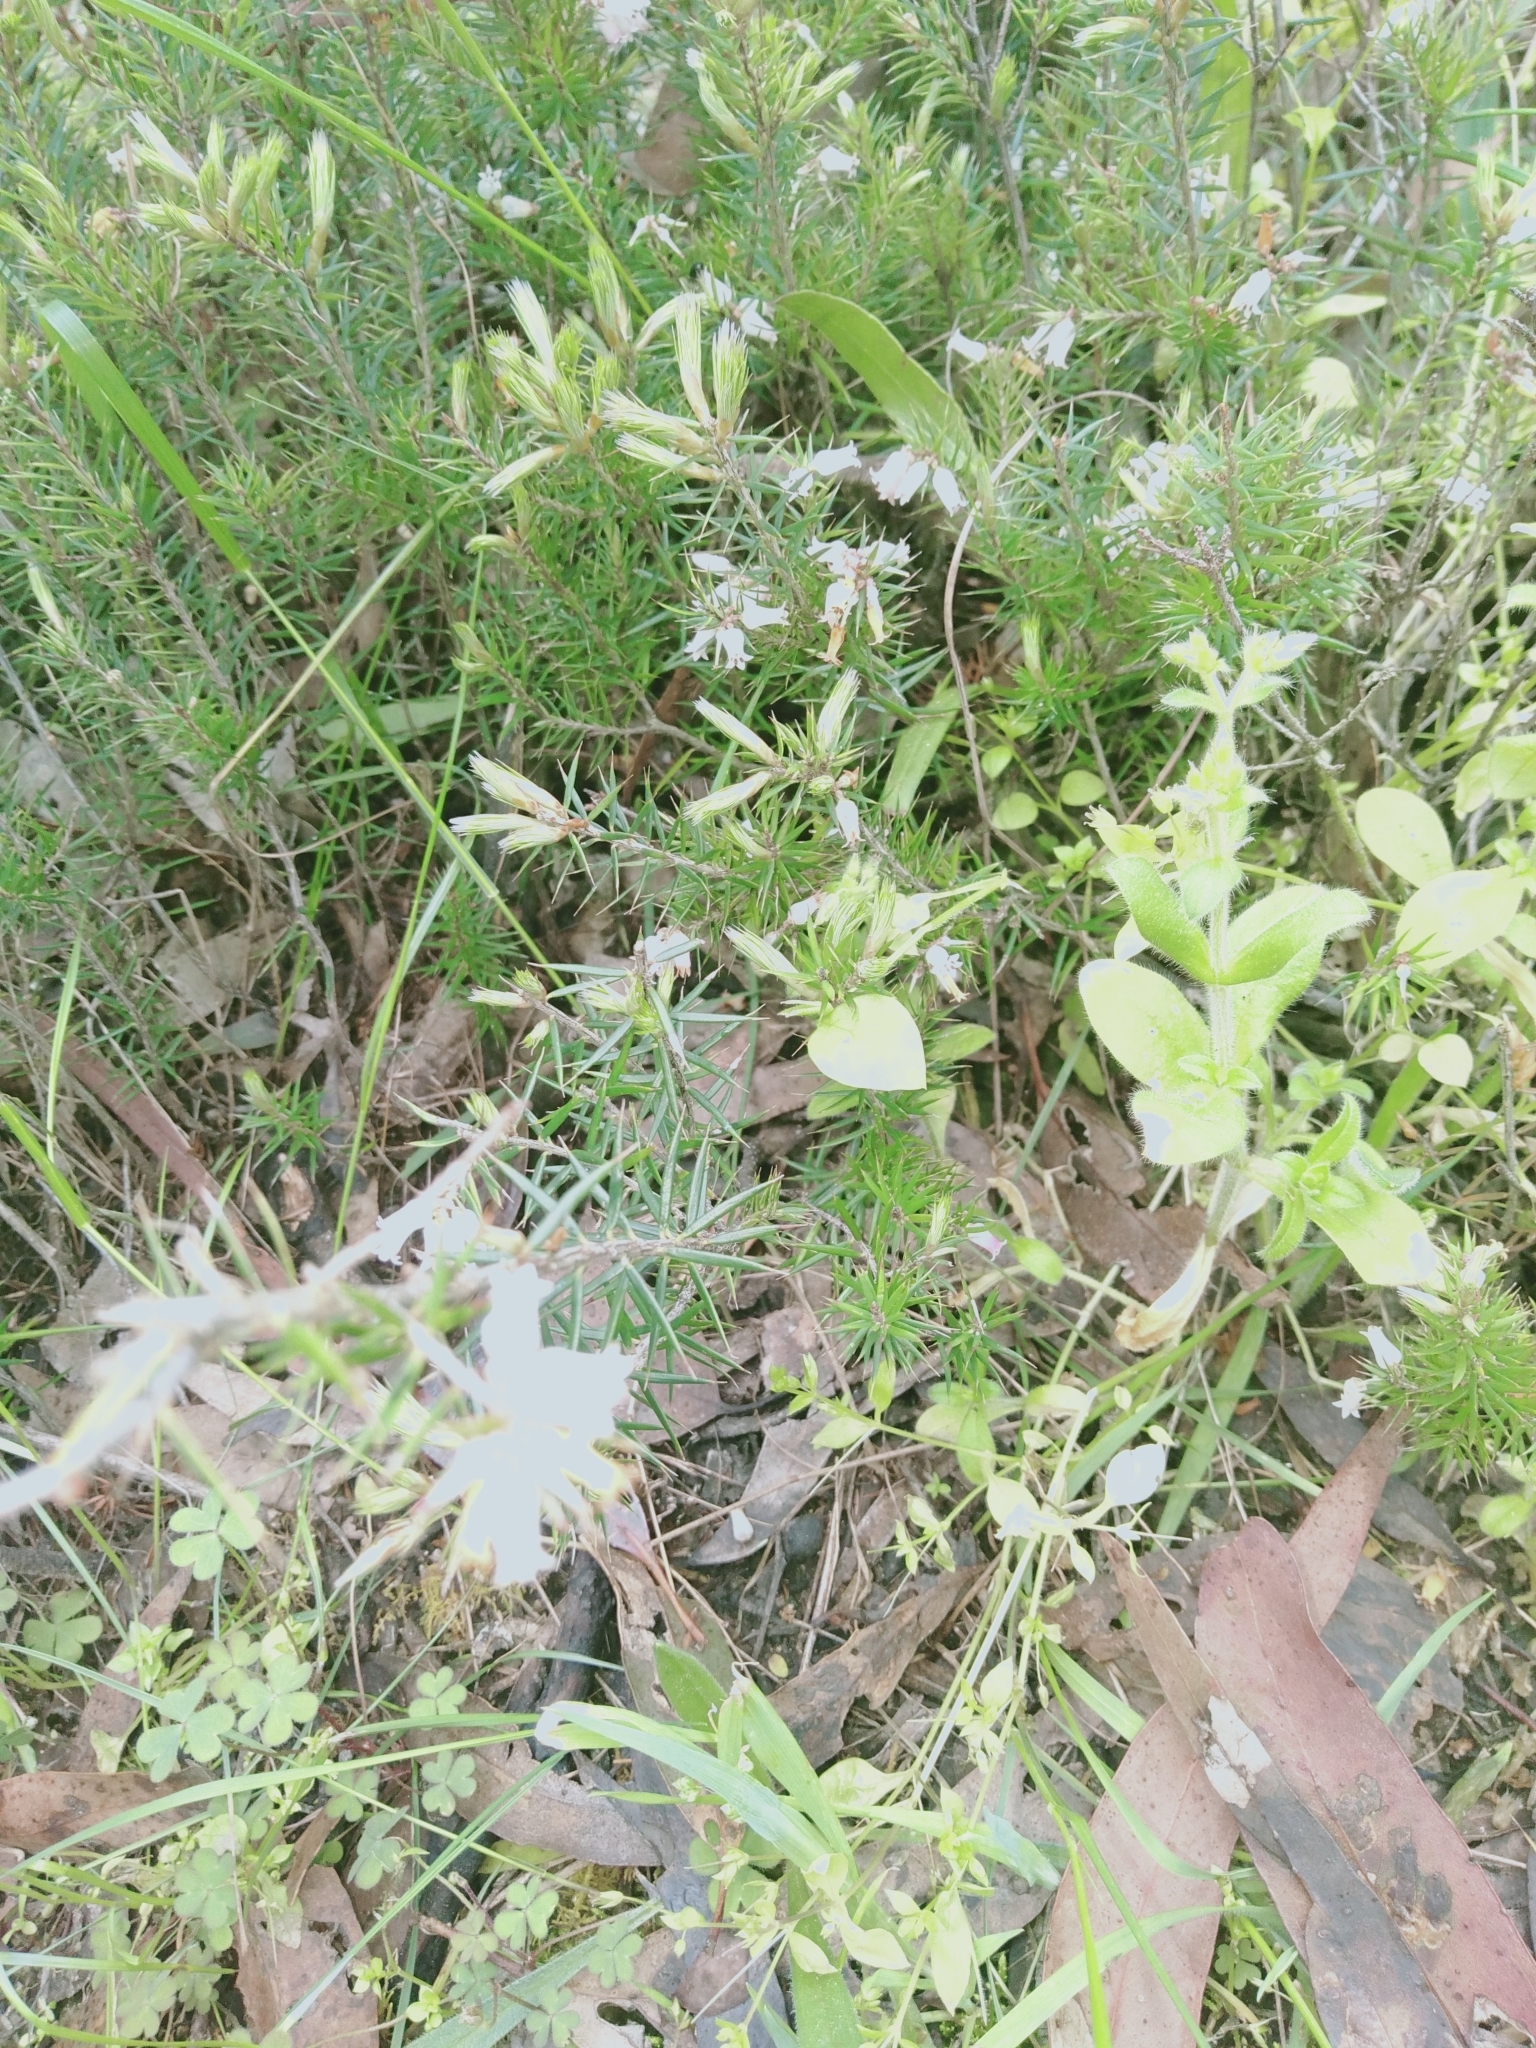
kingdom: Plantae
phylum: Tracheophyta
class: Magnoliopsida
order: Ericales
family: Ericaceae
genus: Lissanthe
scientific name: Lissanthe strigosa
